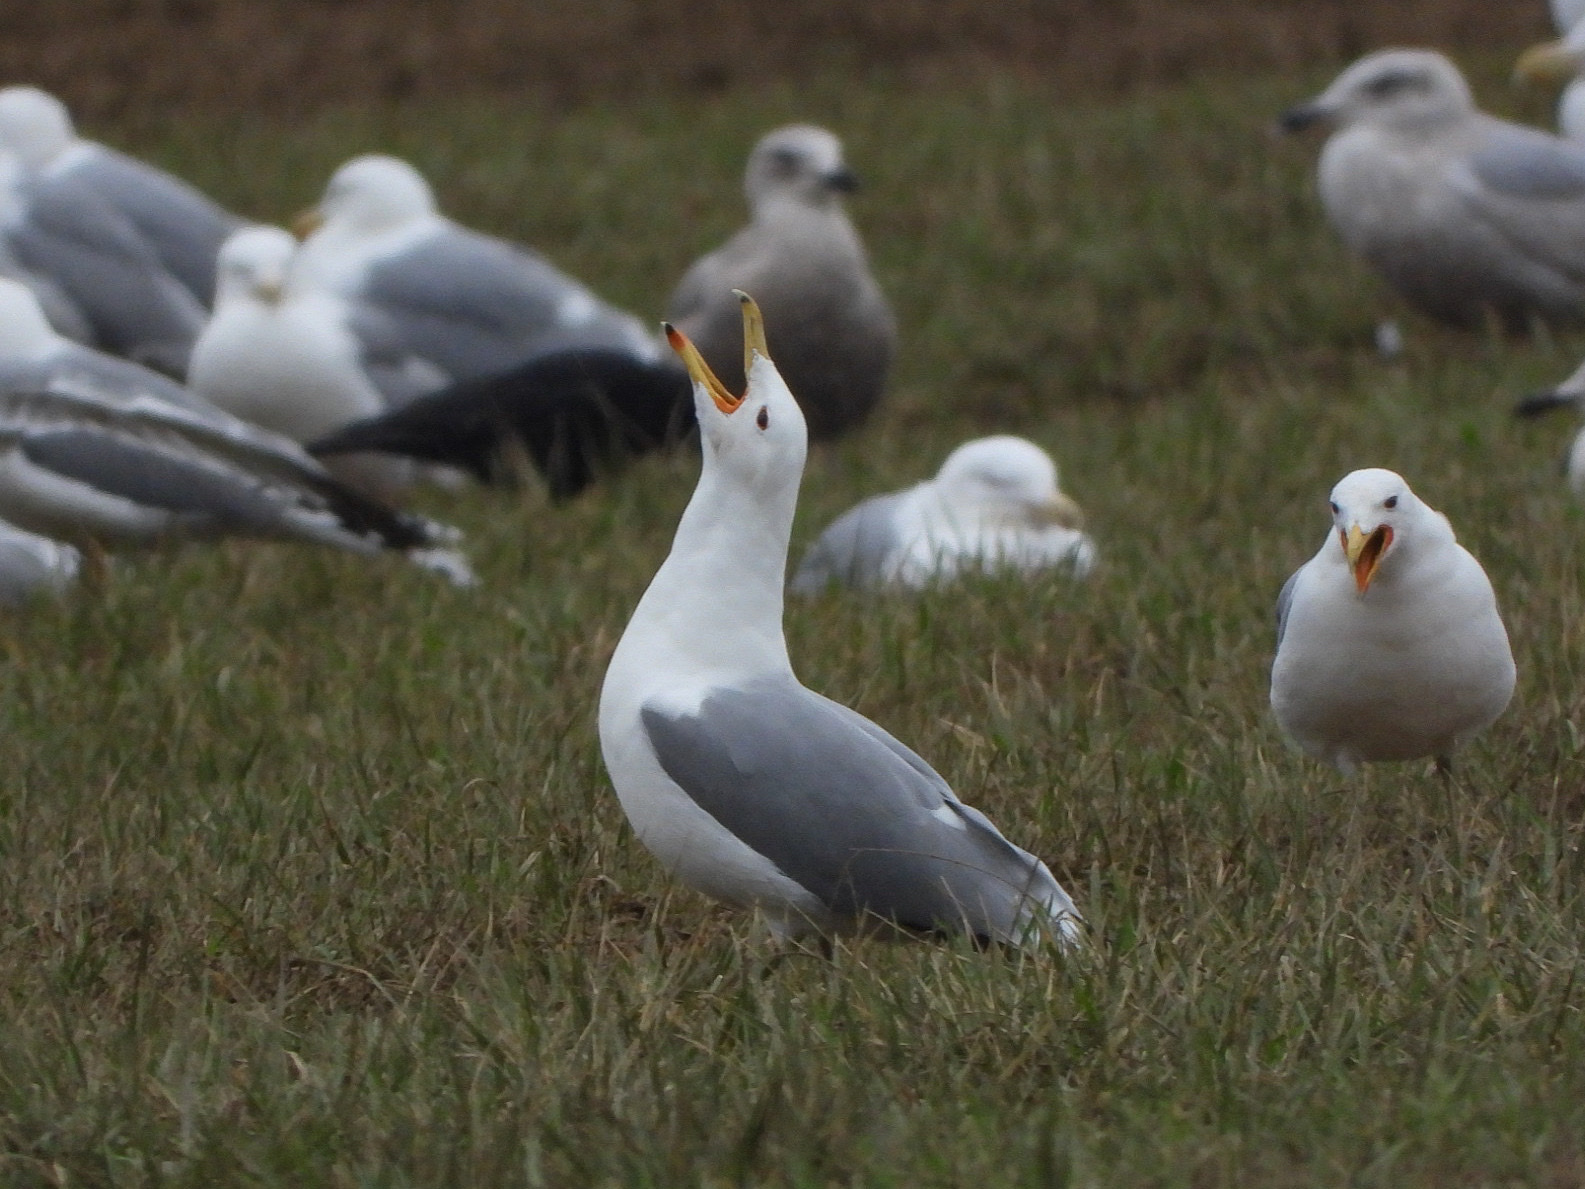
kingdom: Animalia
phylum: Chordata
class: Aves
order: Charadriiformes
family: Laridae
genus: Larus
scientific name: Larus californicus
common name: California gull
